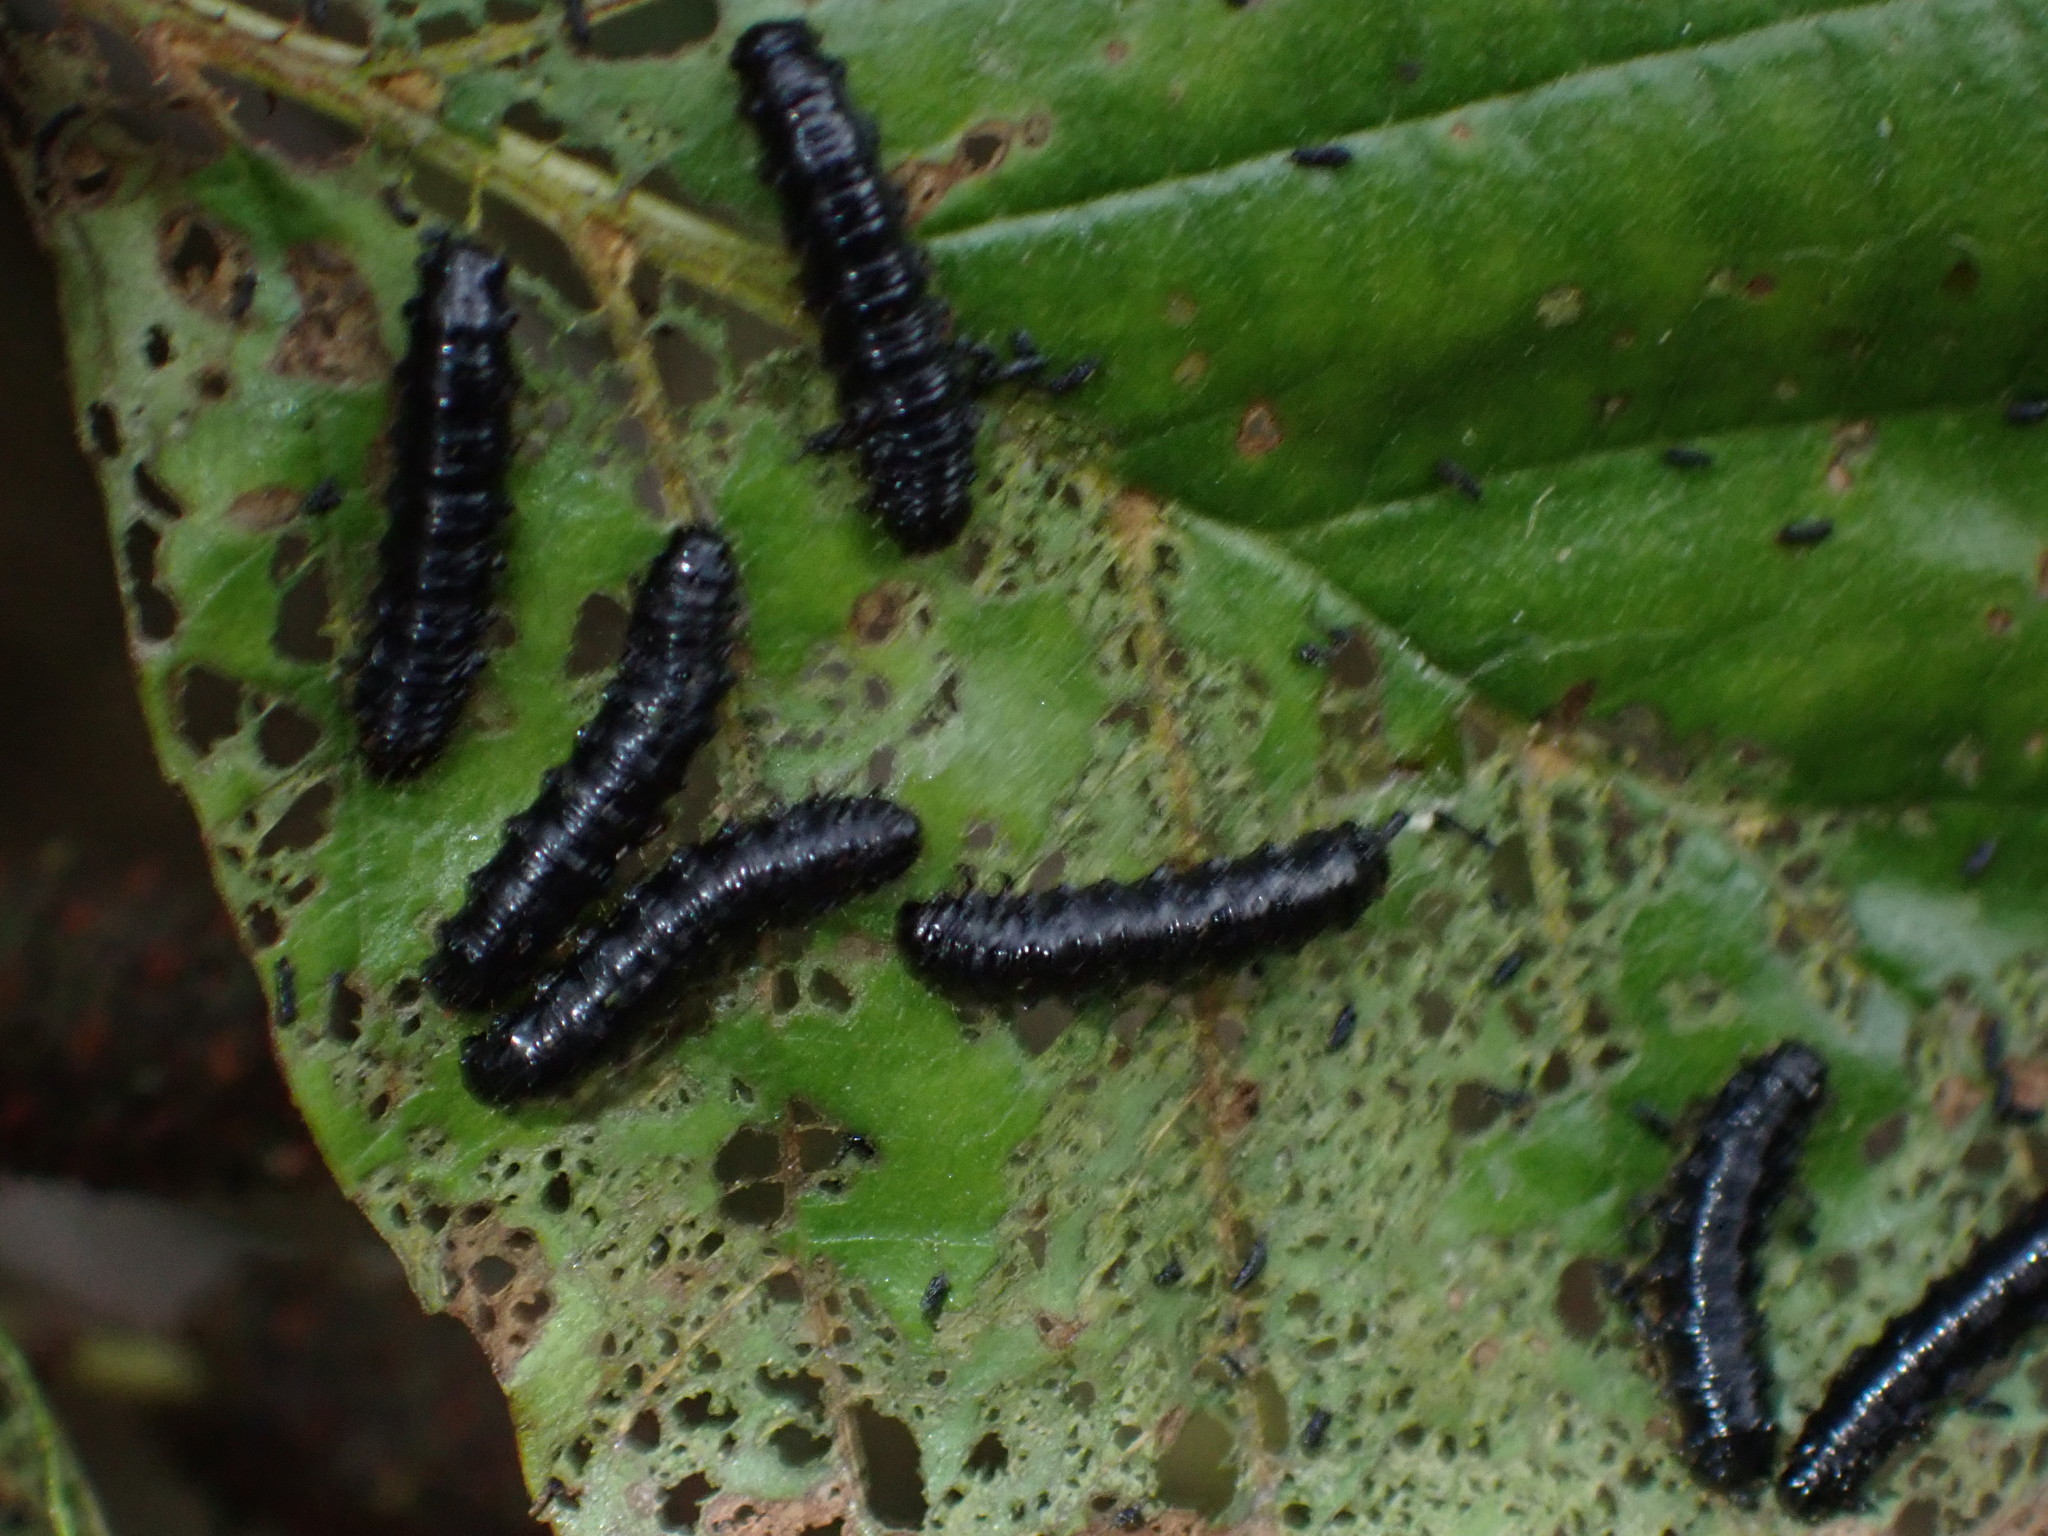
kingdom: Animalia
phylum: Arthropoda
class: Insecta
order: Coleoptera
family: Chrysomelidae
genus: Agelastica
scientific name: Agelastica alni
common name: Alder leaf beetle
